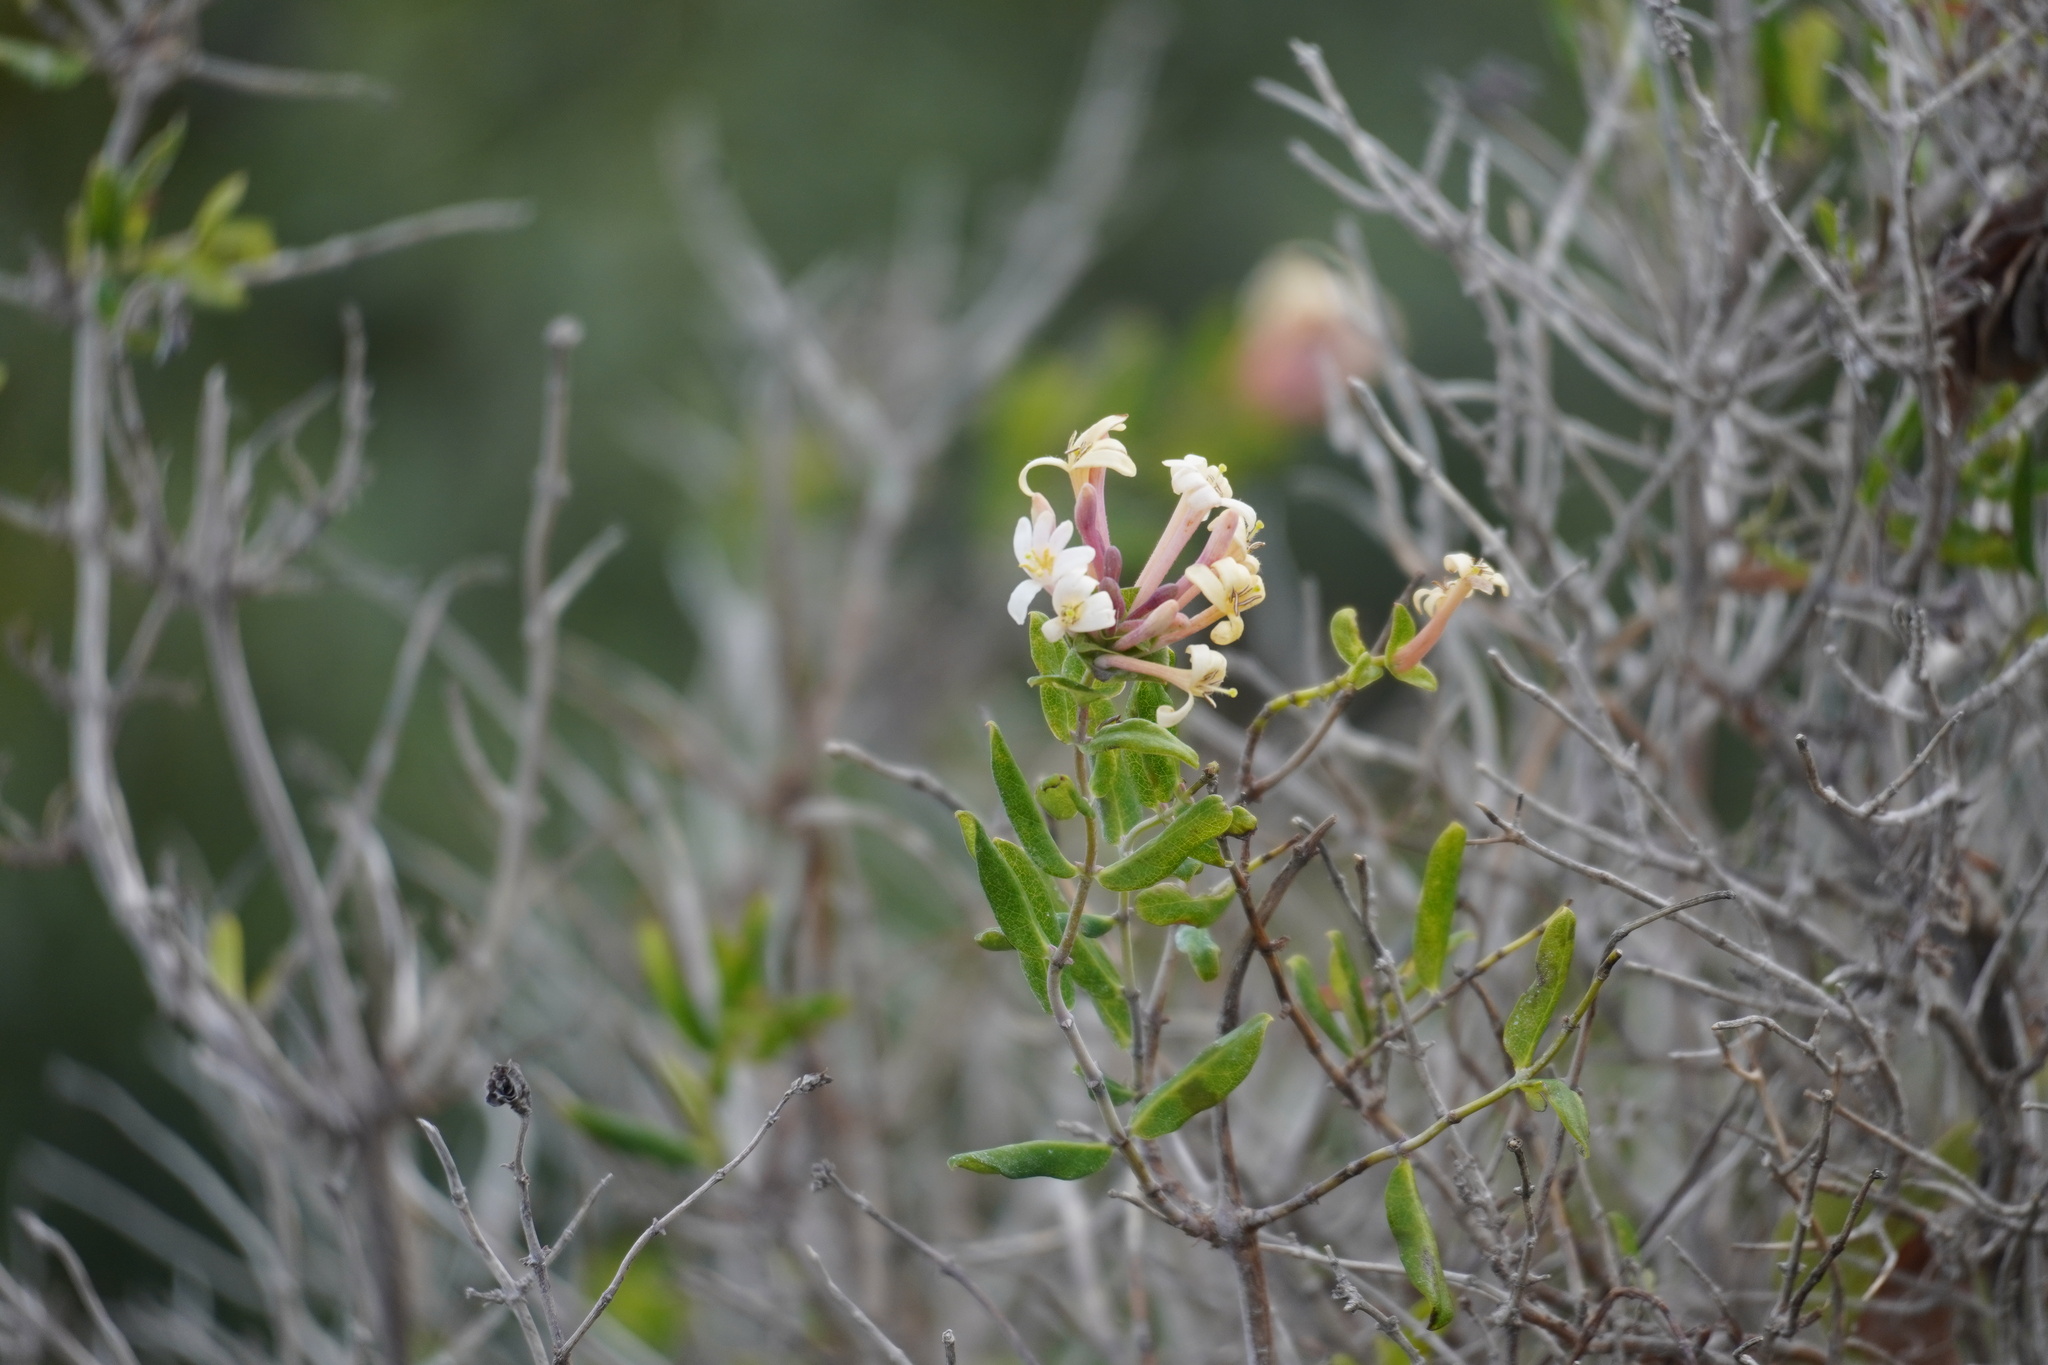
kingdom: Plantae
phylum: Tracheophyta
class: Magnoliopsida
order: Dipsacales
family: Caprifoliaceae
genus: Lonicera
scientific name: Lonicera implexa
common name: Minorca honeysuckle
